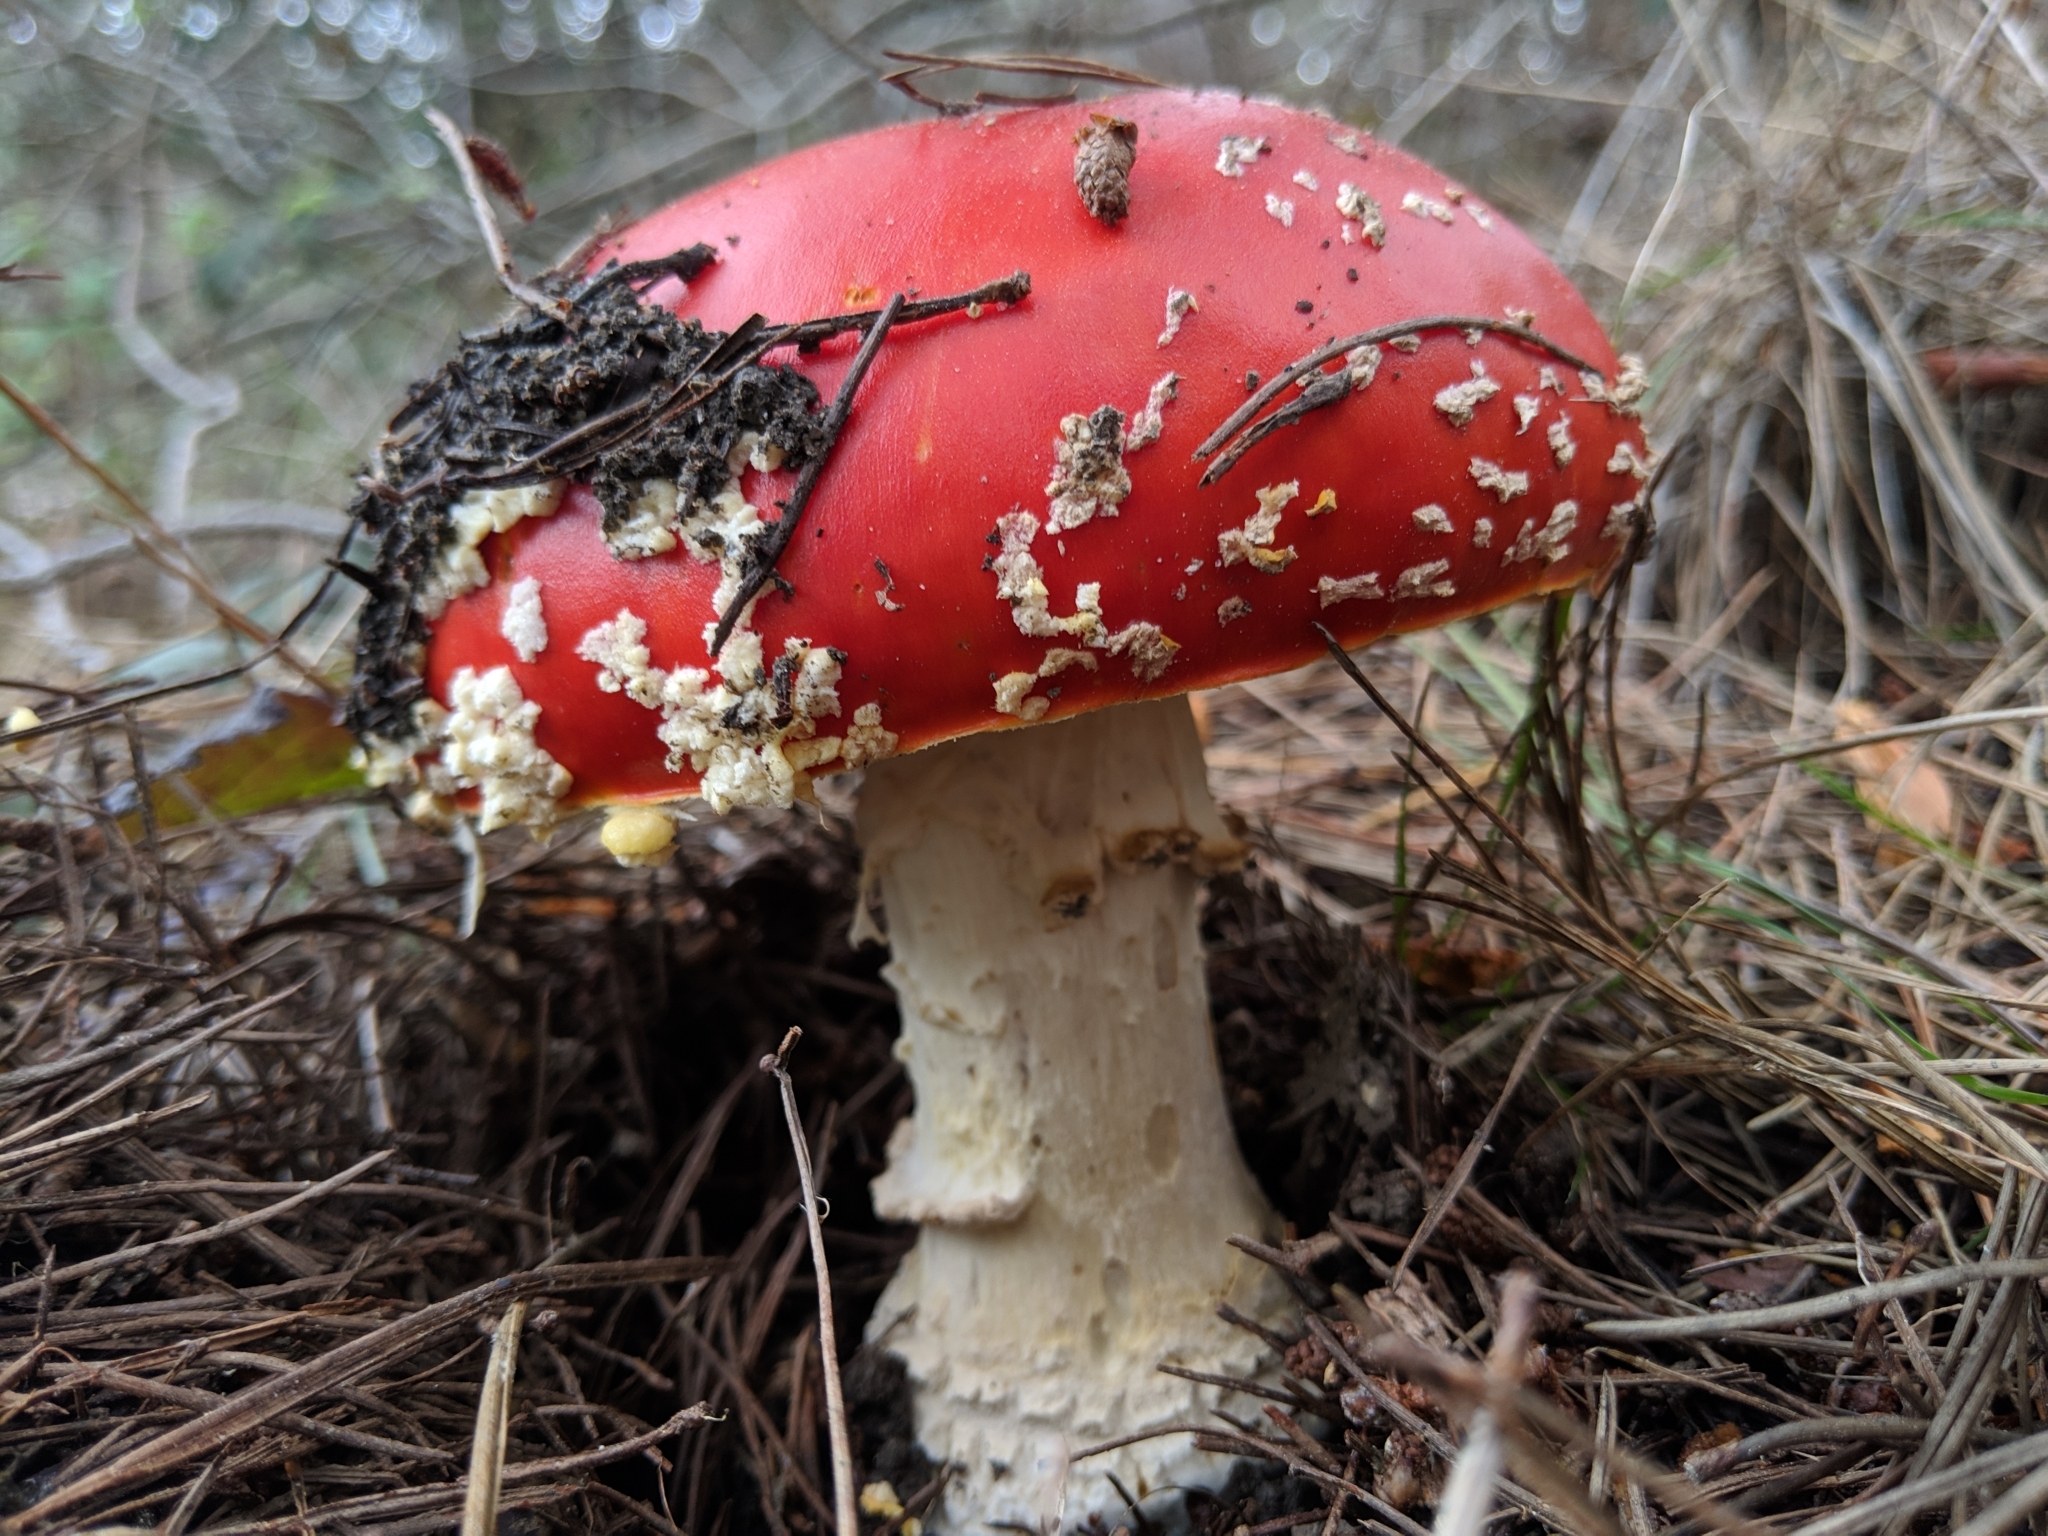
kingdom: Fungi
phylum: Basidiomycota
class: Agaricomycetes
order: Agaricales
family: Amanitaceae
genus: Amanita
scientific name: Amanita muscaria
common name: Fly agaric
